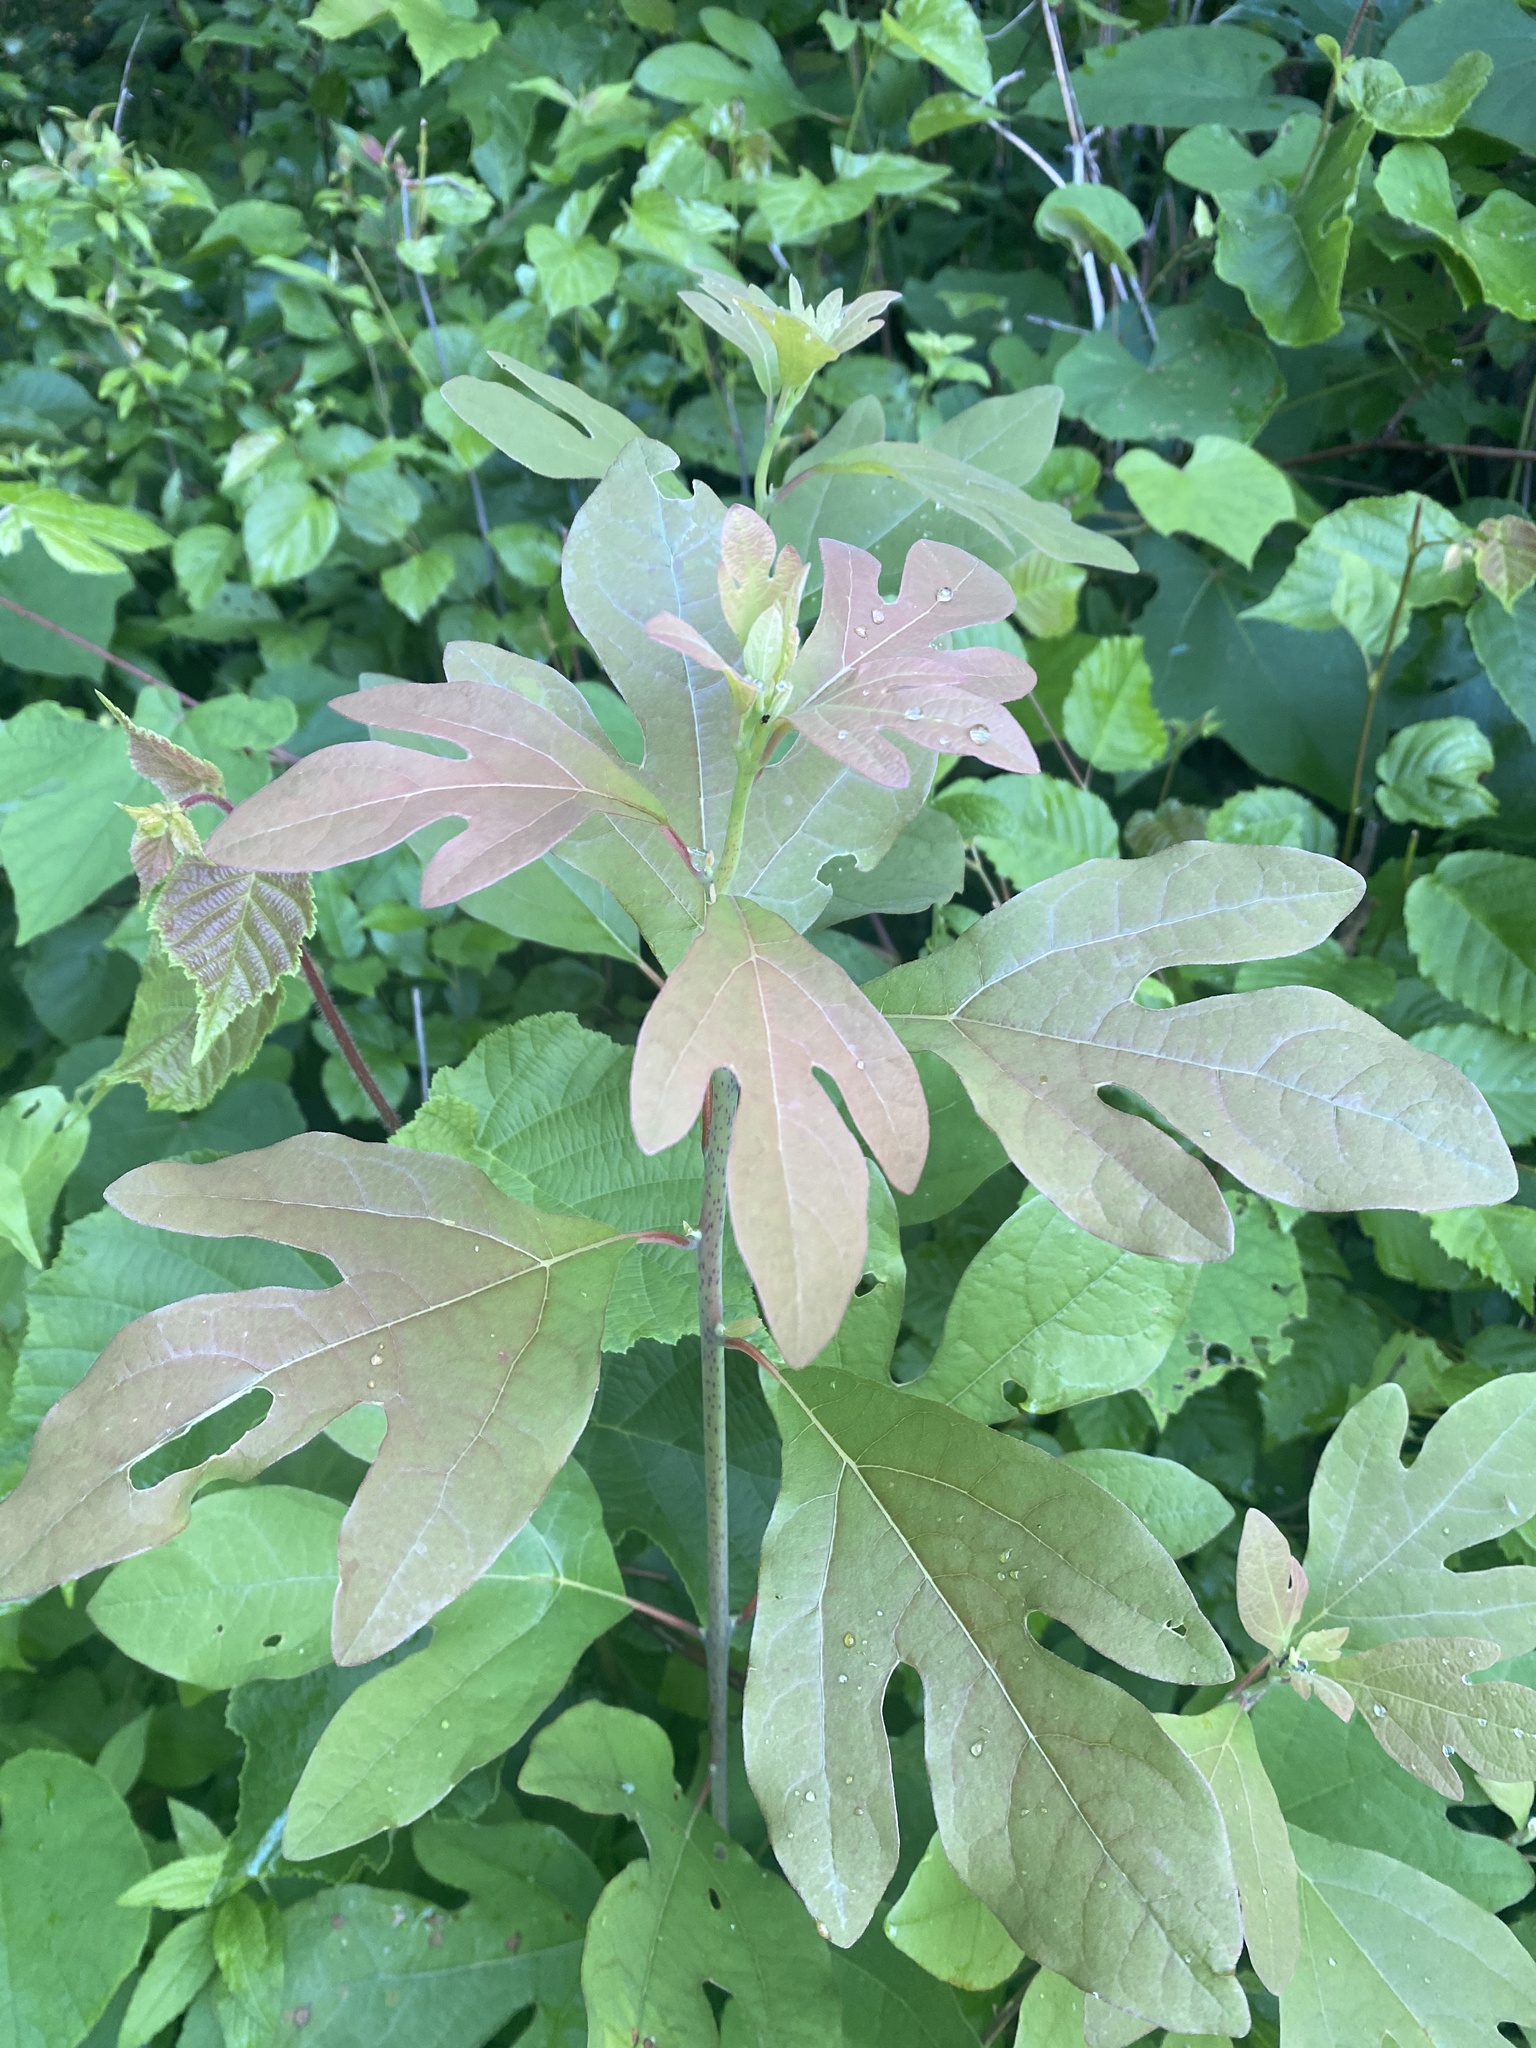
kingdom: Plantae
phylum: Tracheophyta
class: Magnoliopsida
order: Laurales
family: Lauraceae
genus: Sassafras
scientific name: Sassafras albidum
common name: Sassafras
